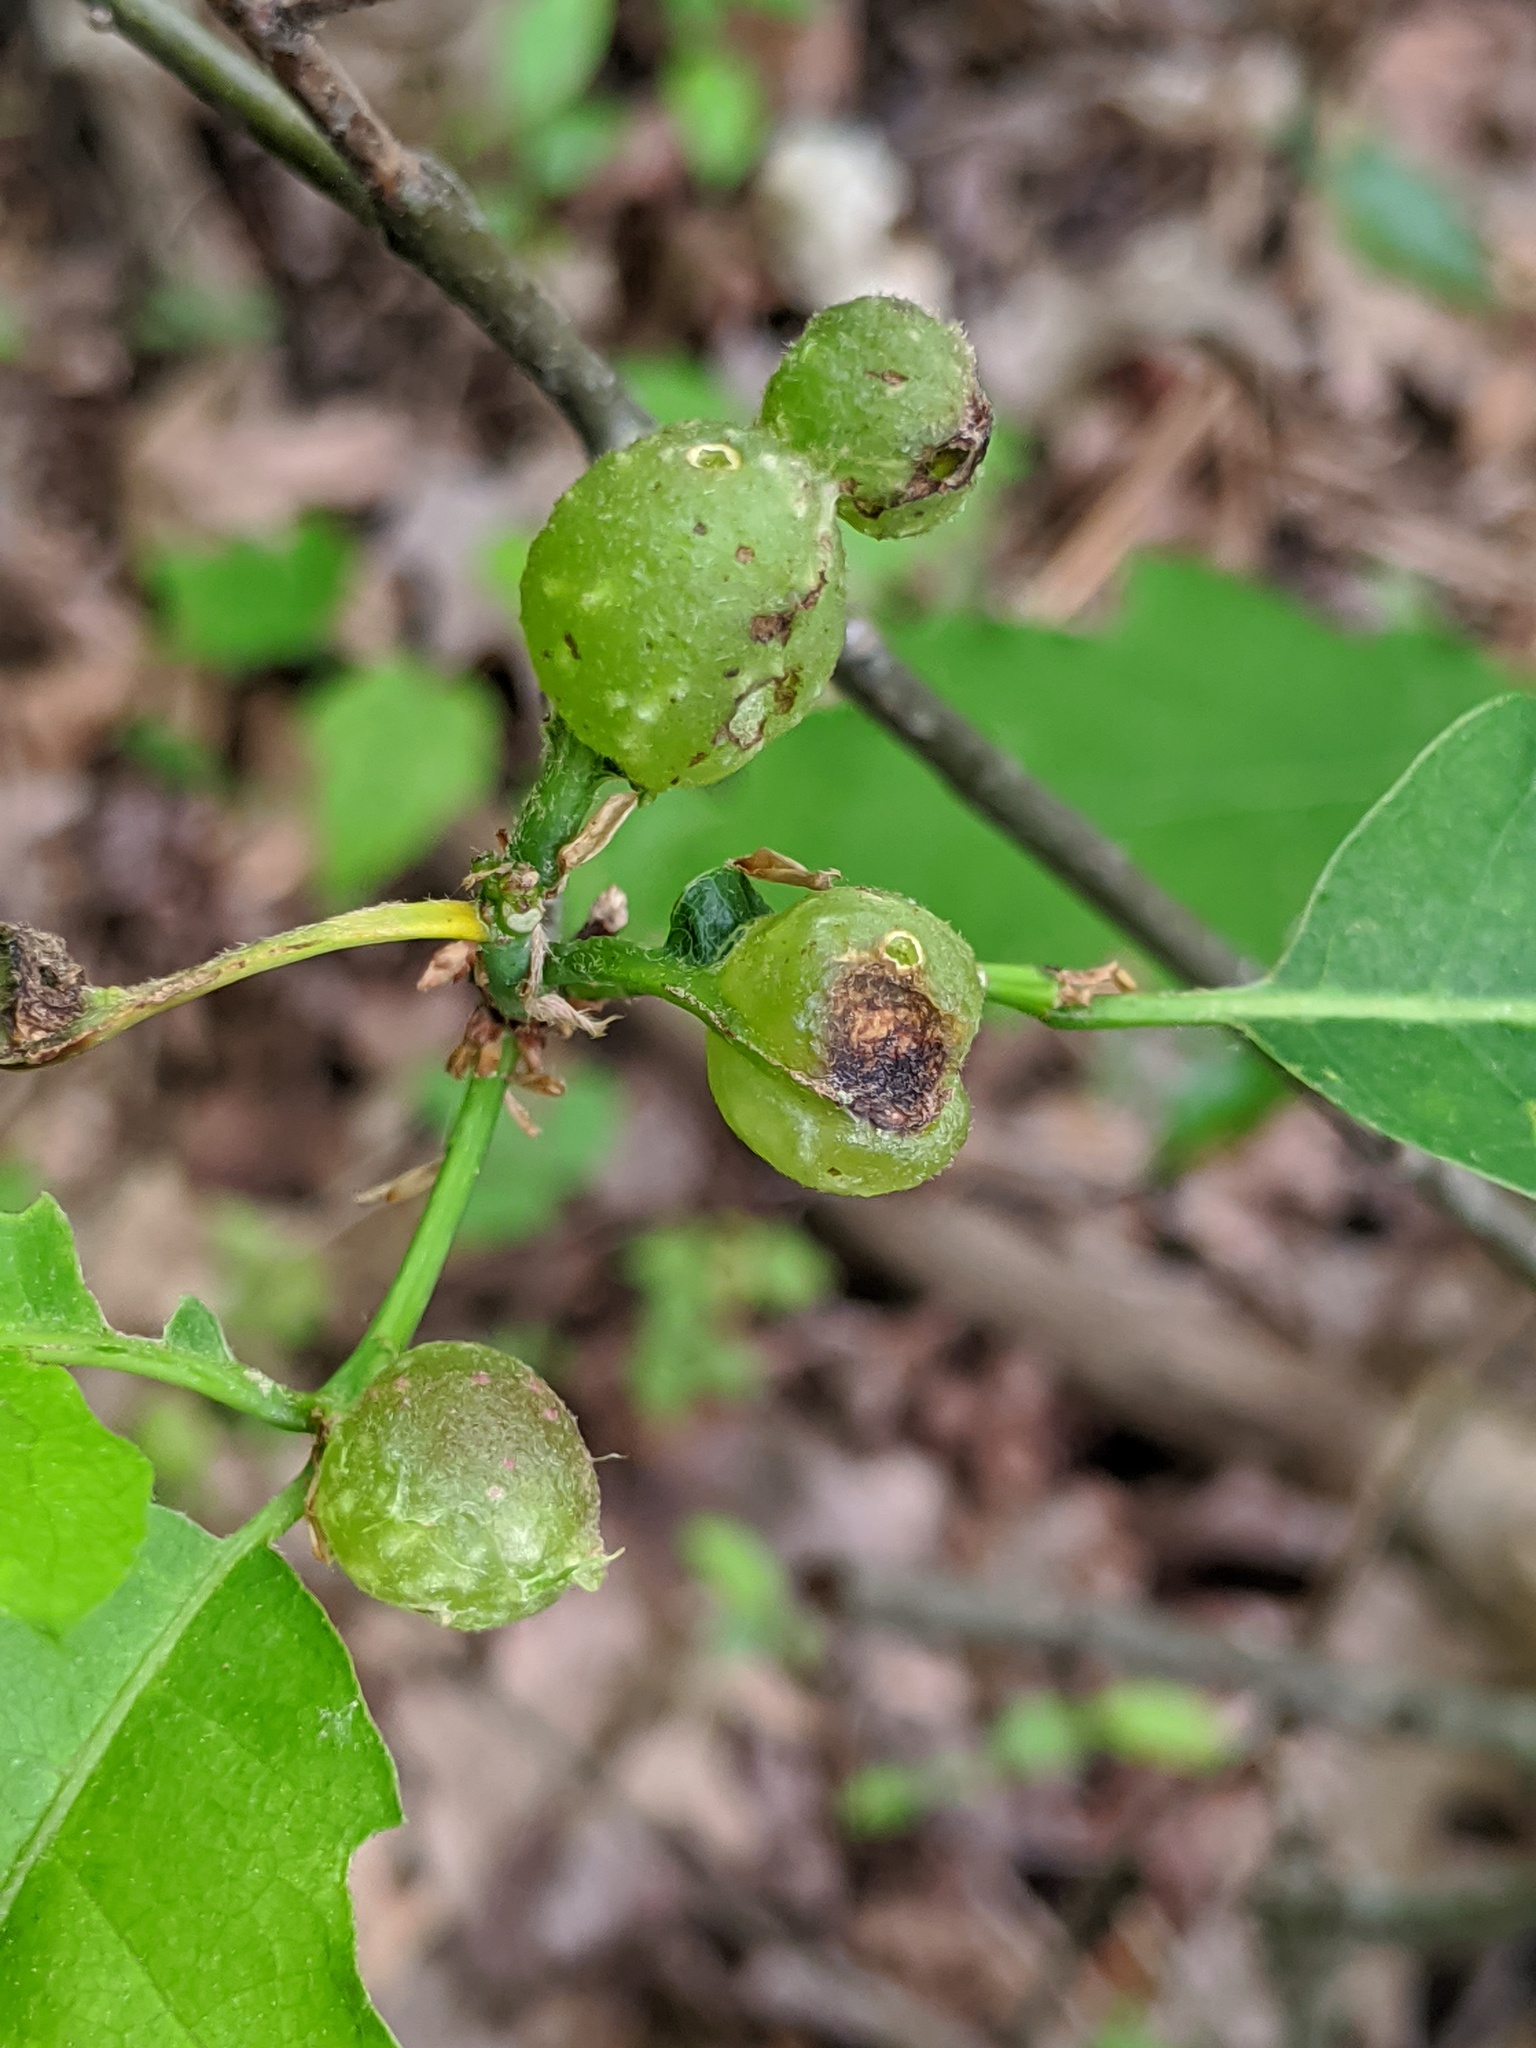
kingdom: Animalia
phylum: Arthropoda
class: Insecta
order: Hymenoptera
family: Cynipidae
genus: Dryocosmus
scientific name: Dryocosmus quercuspalustris
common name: Succulent oak gall wasp
